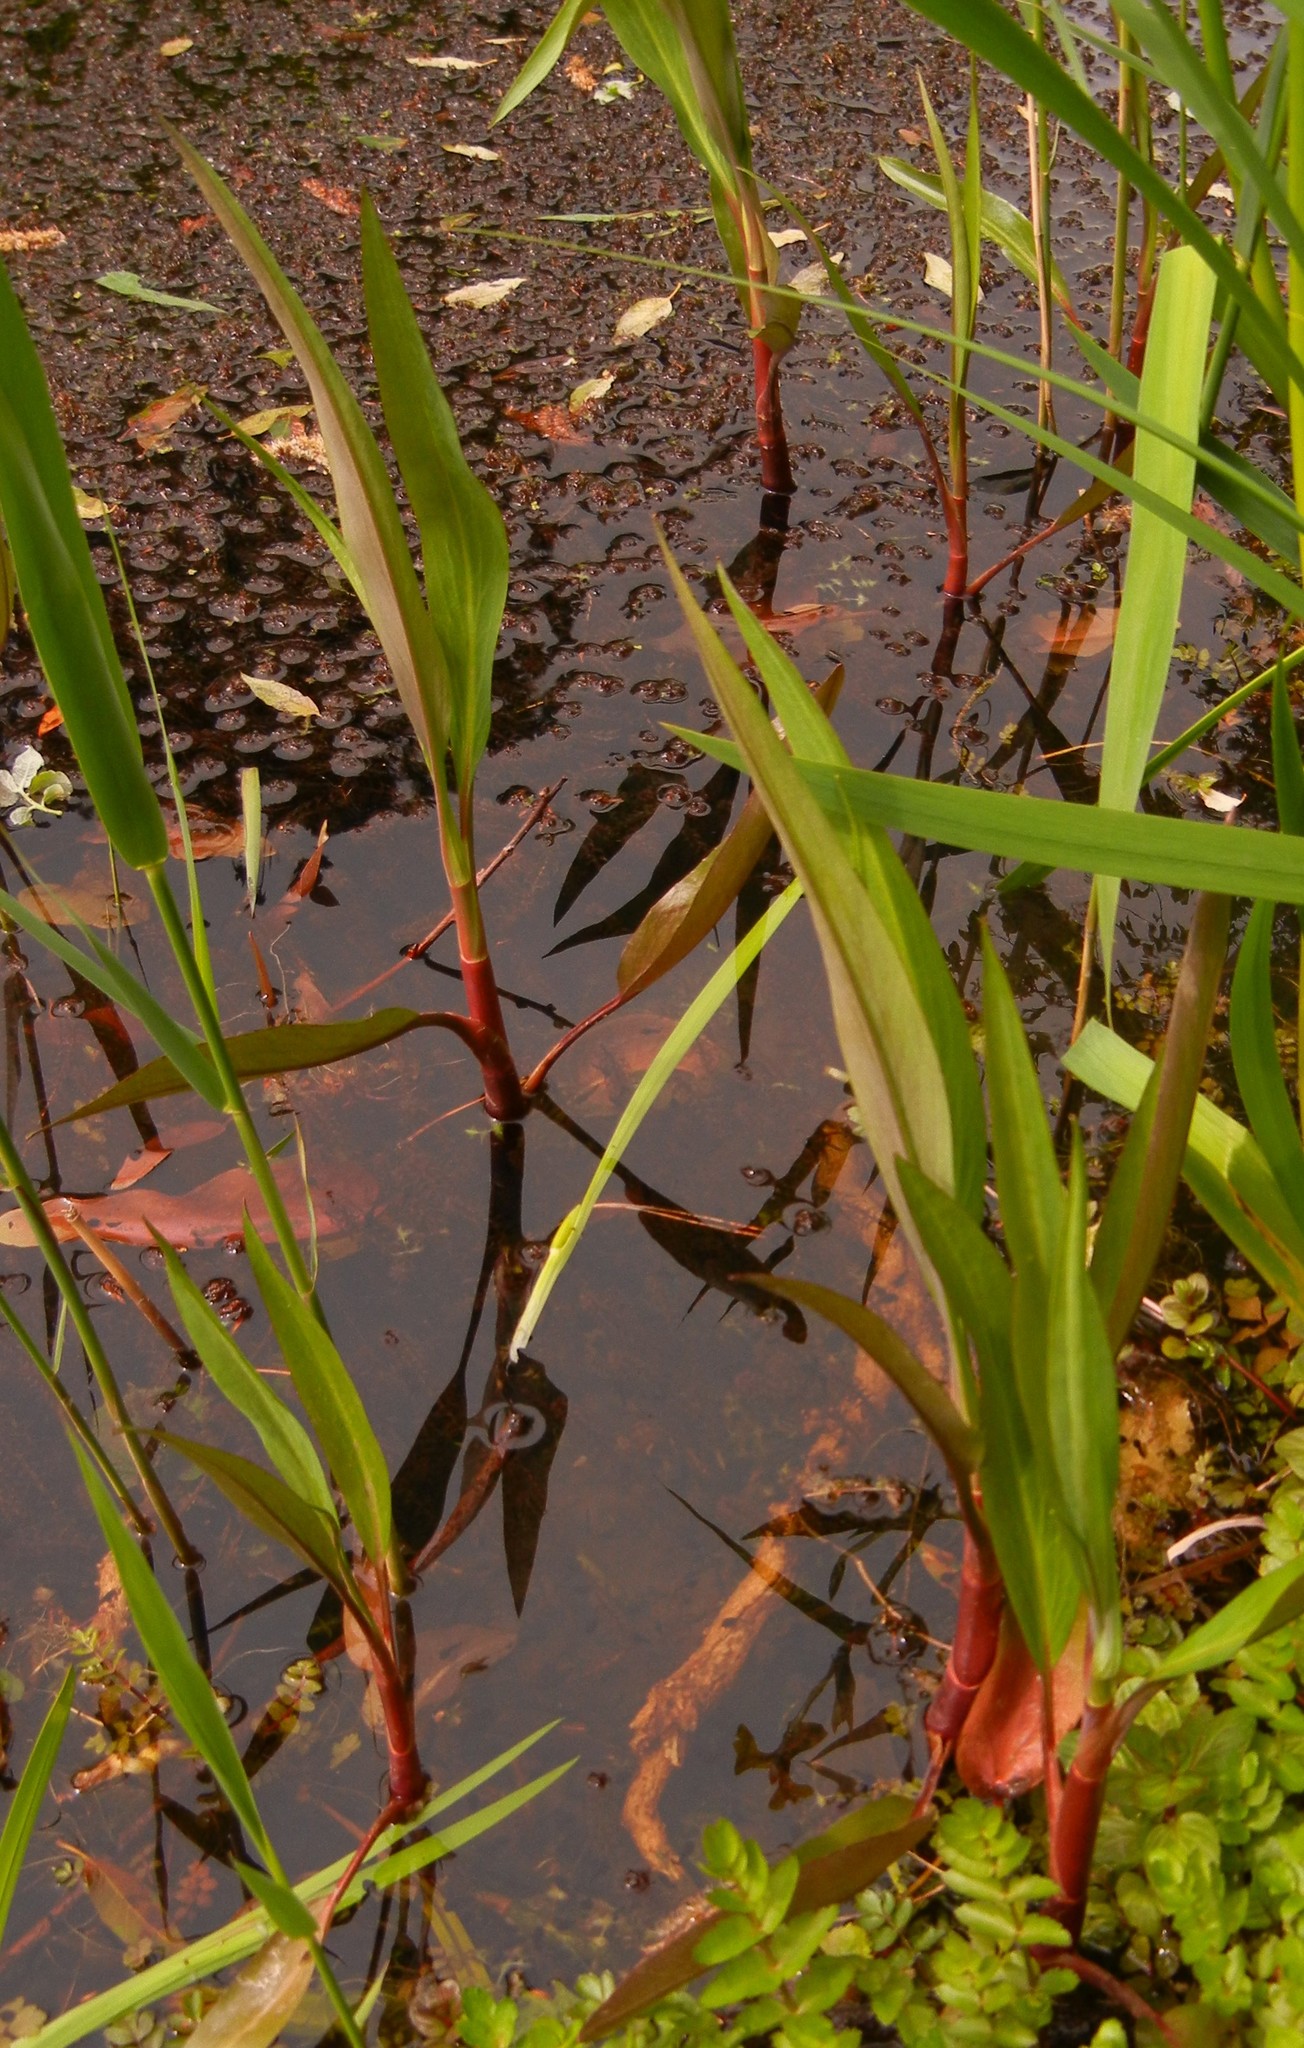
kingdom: Plantae
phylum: Tracheophyta
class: Magnoliopsida
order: Ranunculales
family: Ranunculaceae
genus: Ranunculus
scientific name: Ranunculus lingua
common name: Greater spearwort
